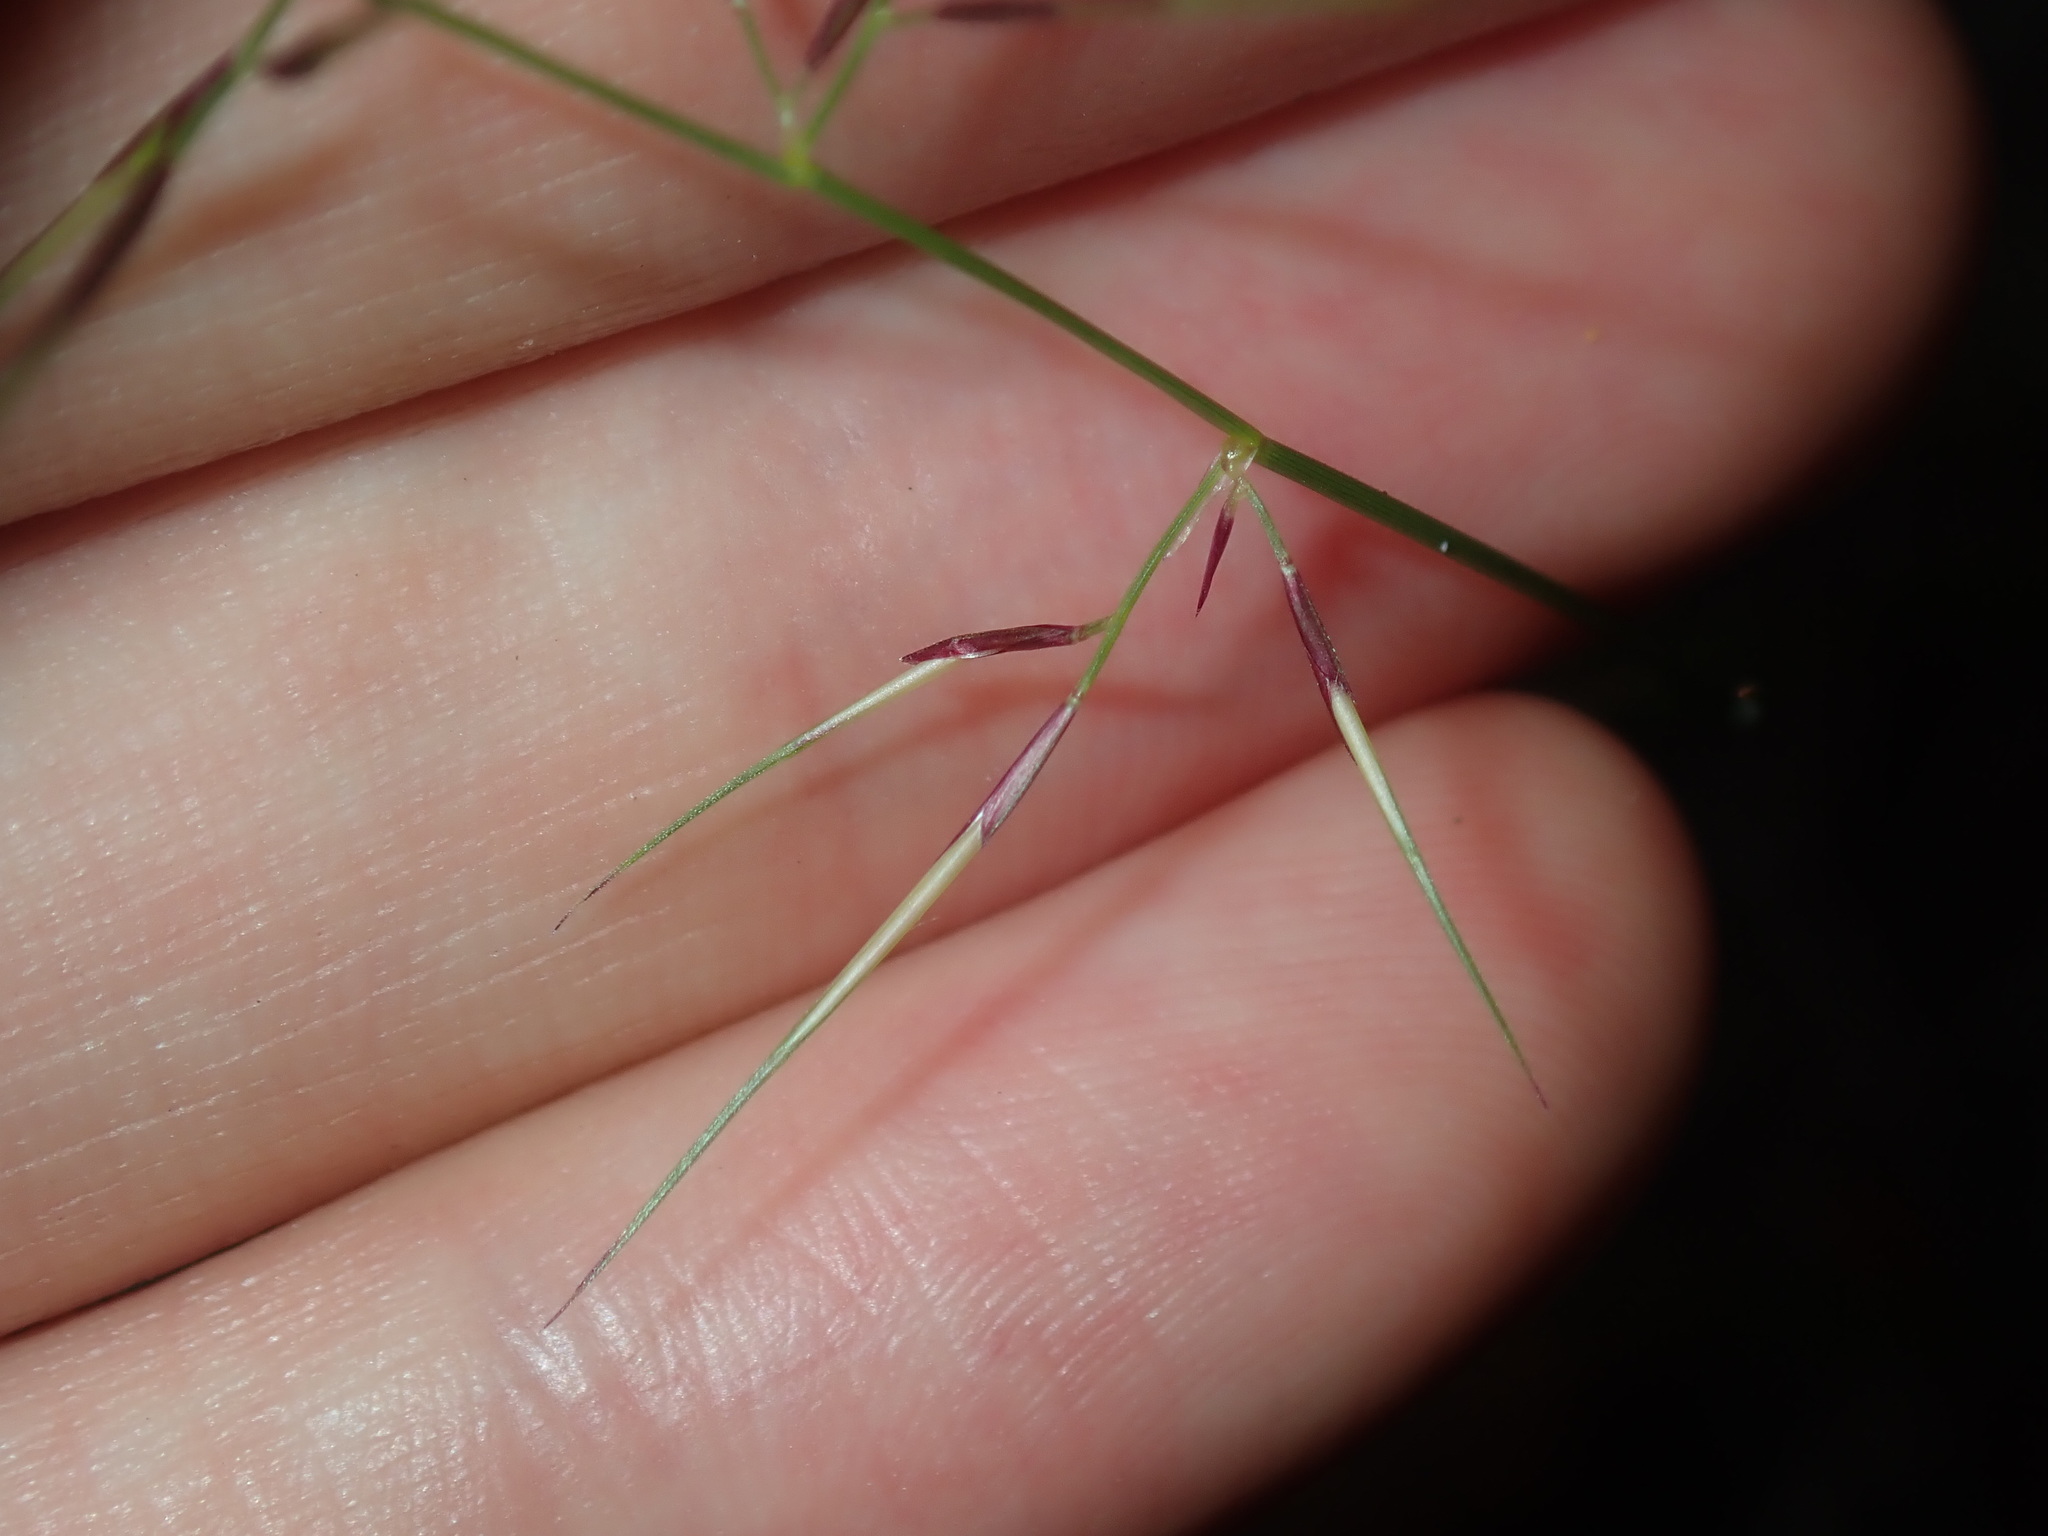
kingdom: Plantae
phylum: Tracheophyta
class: Liliopsida
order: Poales
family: Poaceae
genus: Aristida
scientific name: Aristida vagans
